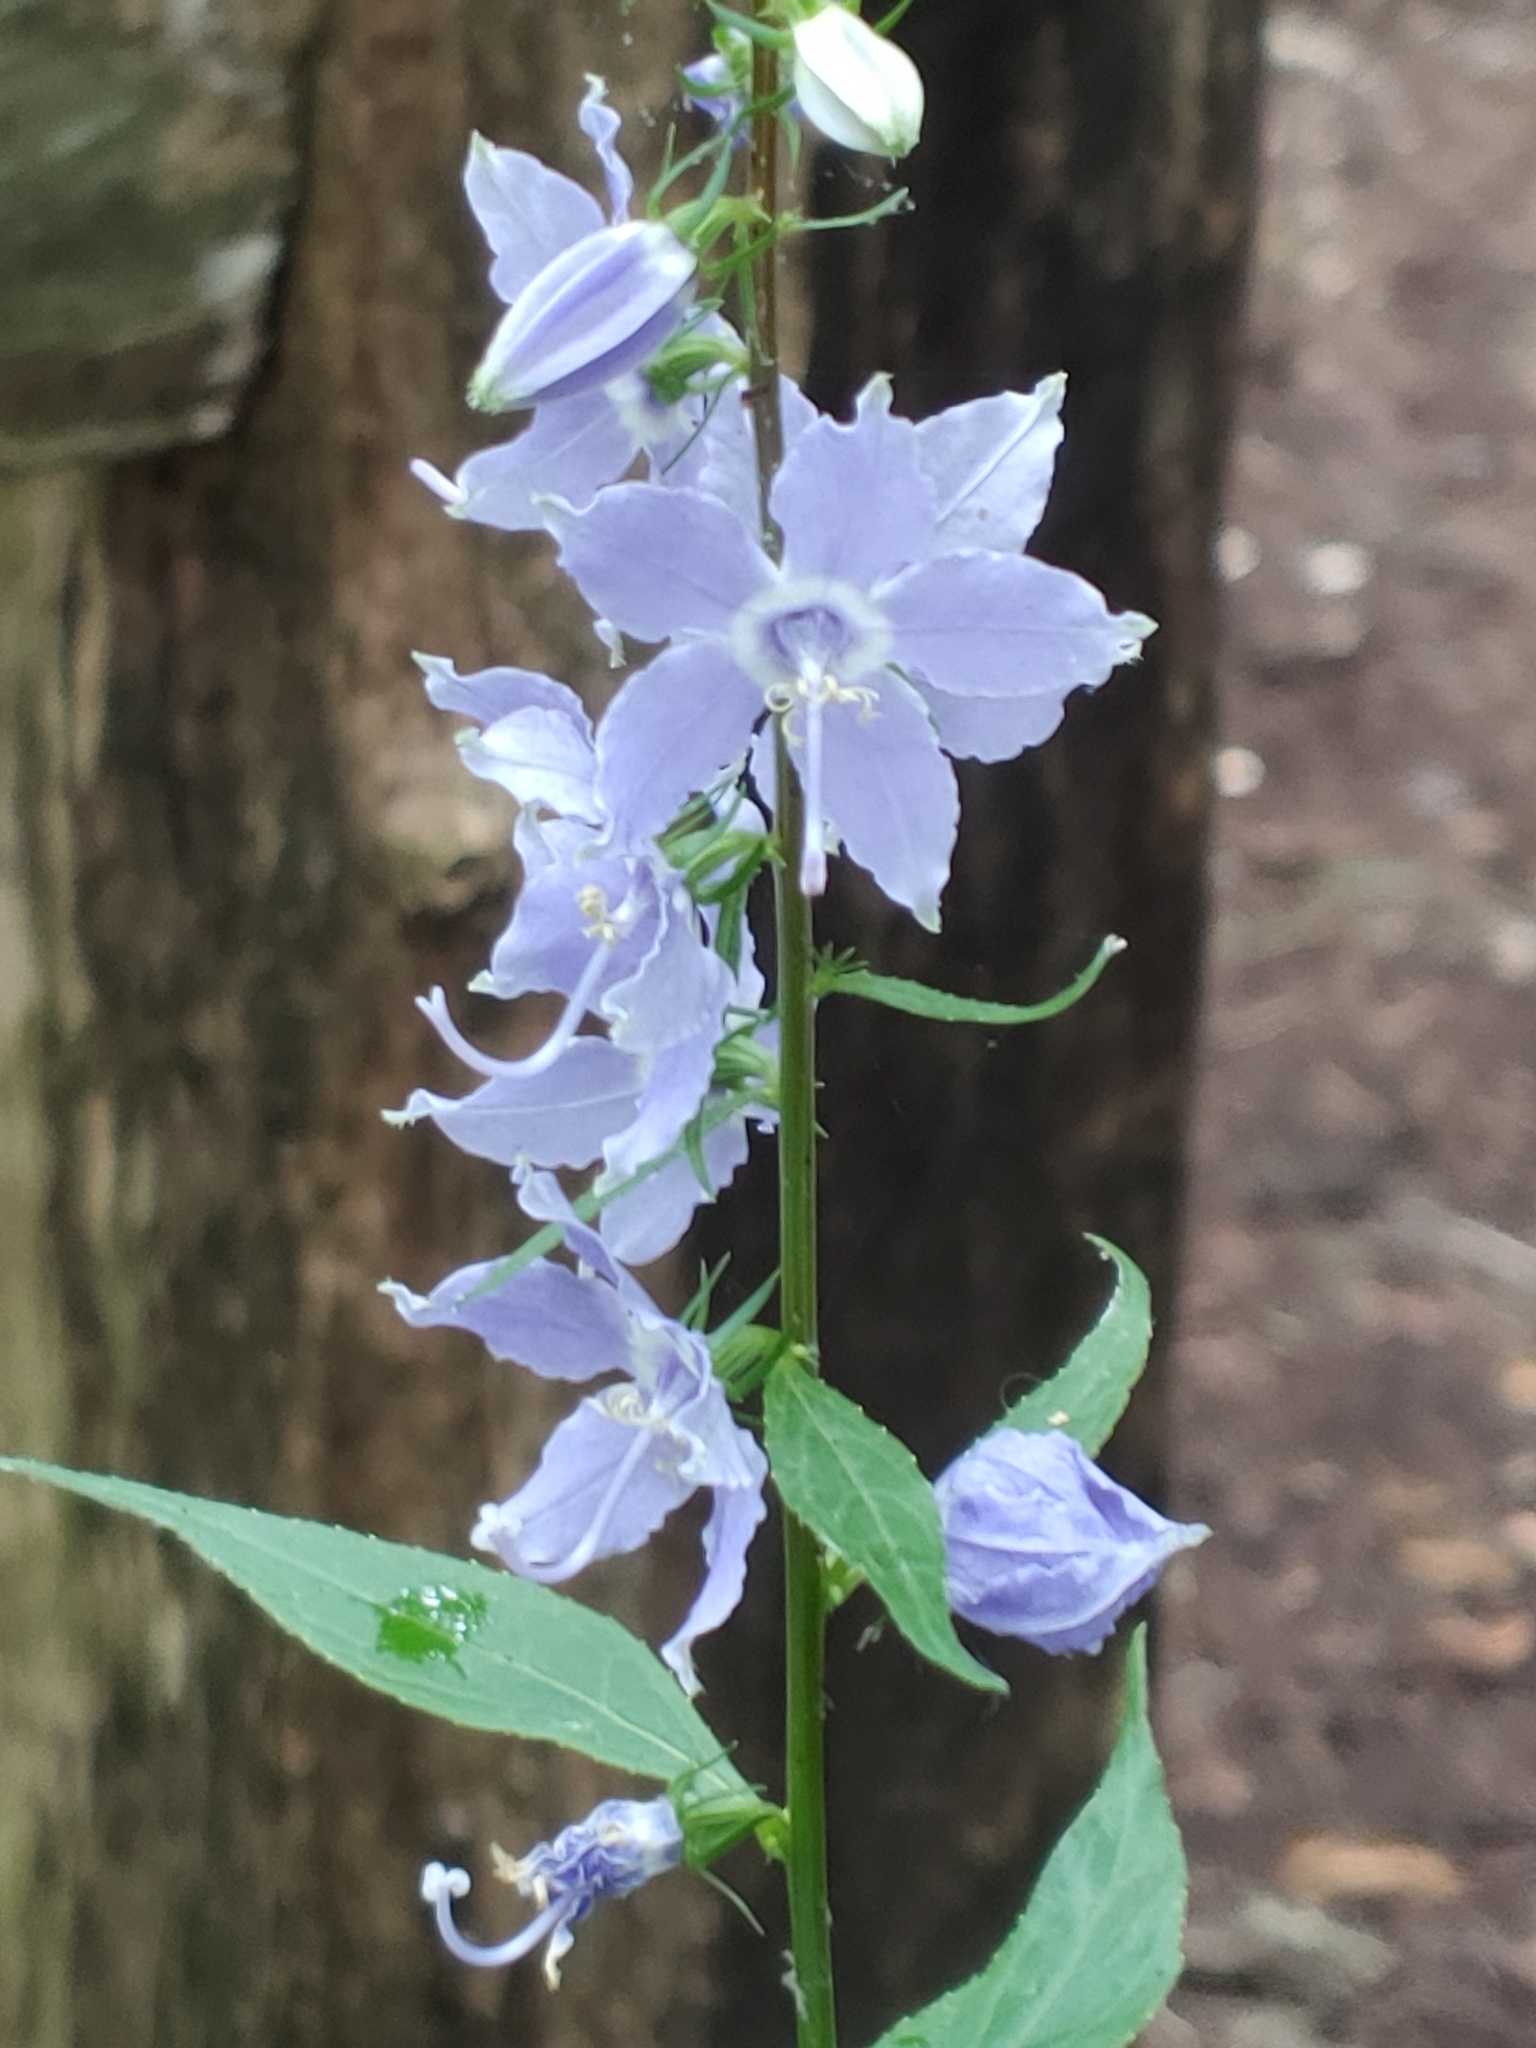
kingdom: Plantae
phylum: Tracheophyta
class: Magnoliopsida
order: Asterales
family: Campanulaceae
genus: Campanulastrum
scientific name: Campanulastrum americanum
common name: American bellflower
